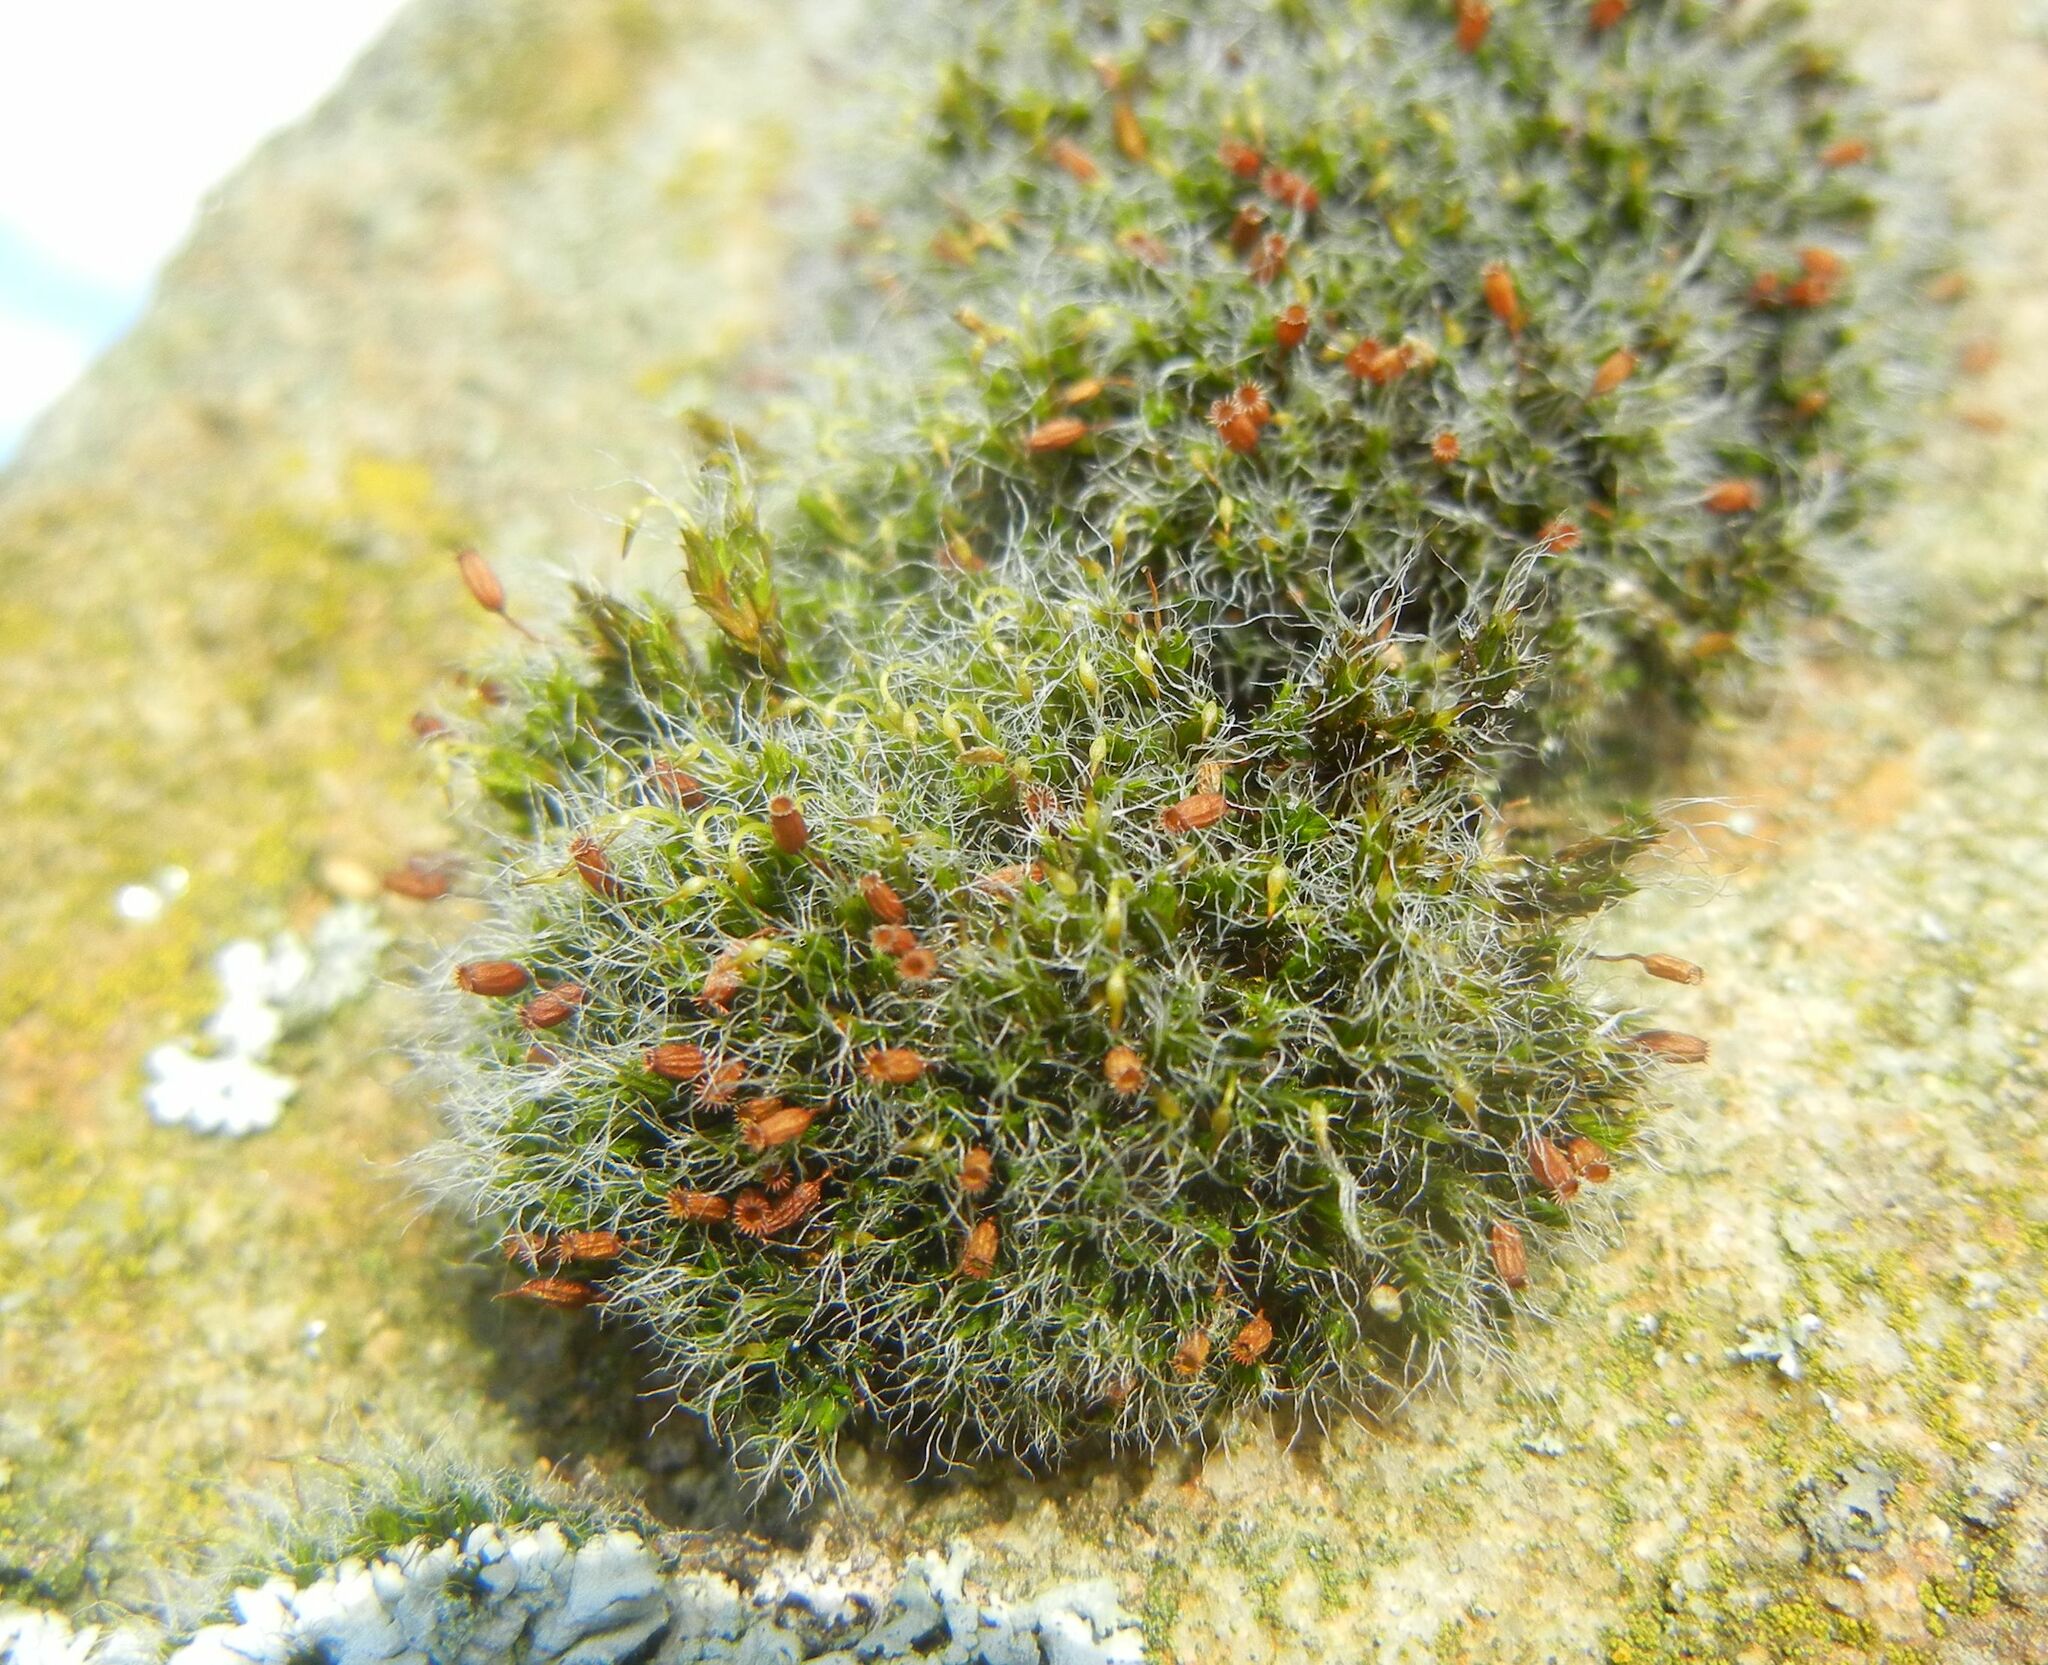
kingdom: Plantae
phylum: Bryophyta
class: Bryopsida
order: Grimmiales
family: Grimmiaceae
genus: Grimmia
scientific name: Grimmia pulvinata
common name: Grey-cushioned grimmia
